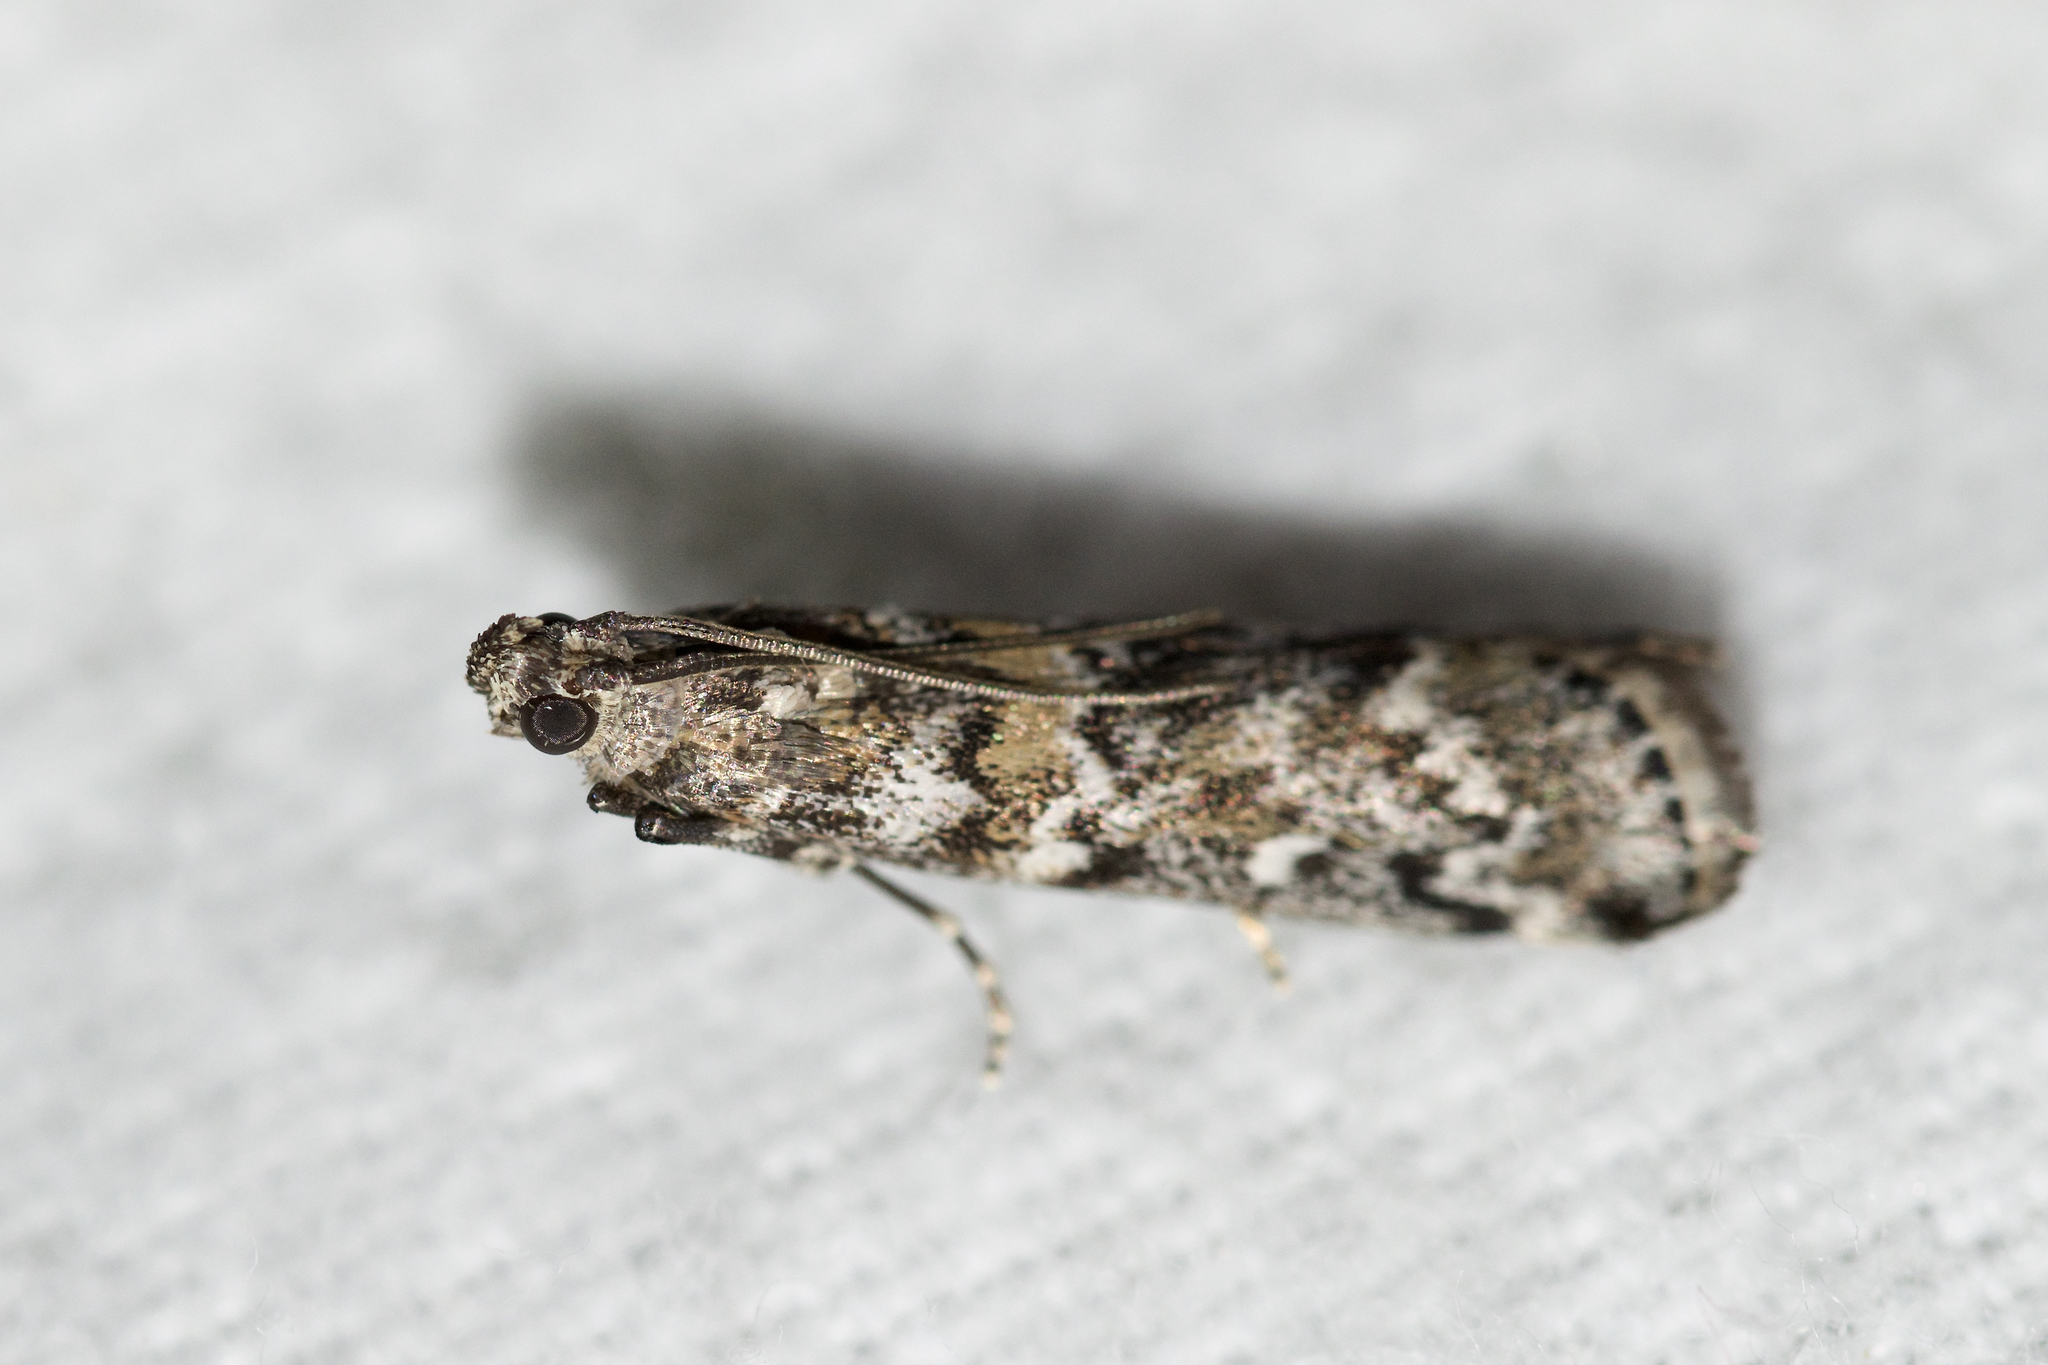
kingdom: Animalia
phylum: Arthropoda
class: Insecta
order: Lepidoptera
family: Pyralidae
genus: Dioryctria
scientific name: Dioryctria reniculelloides
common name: Spruce coneworm moth
